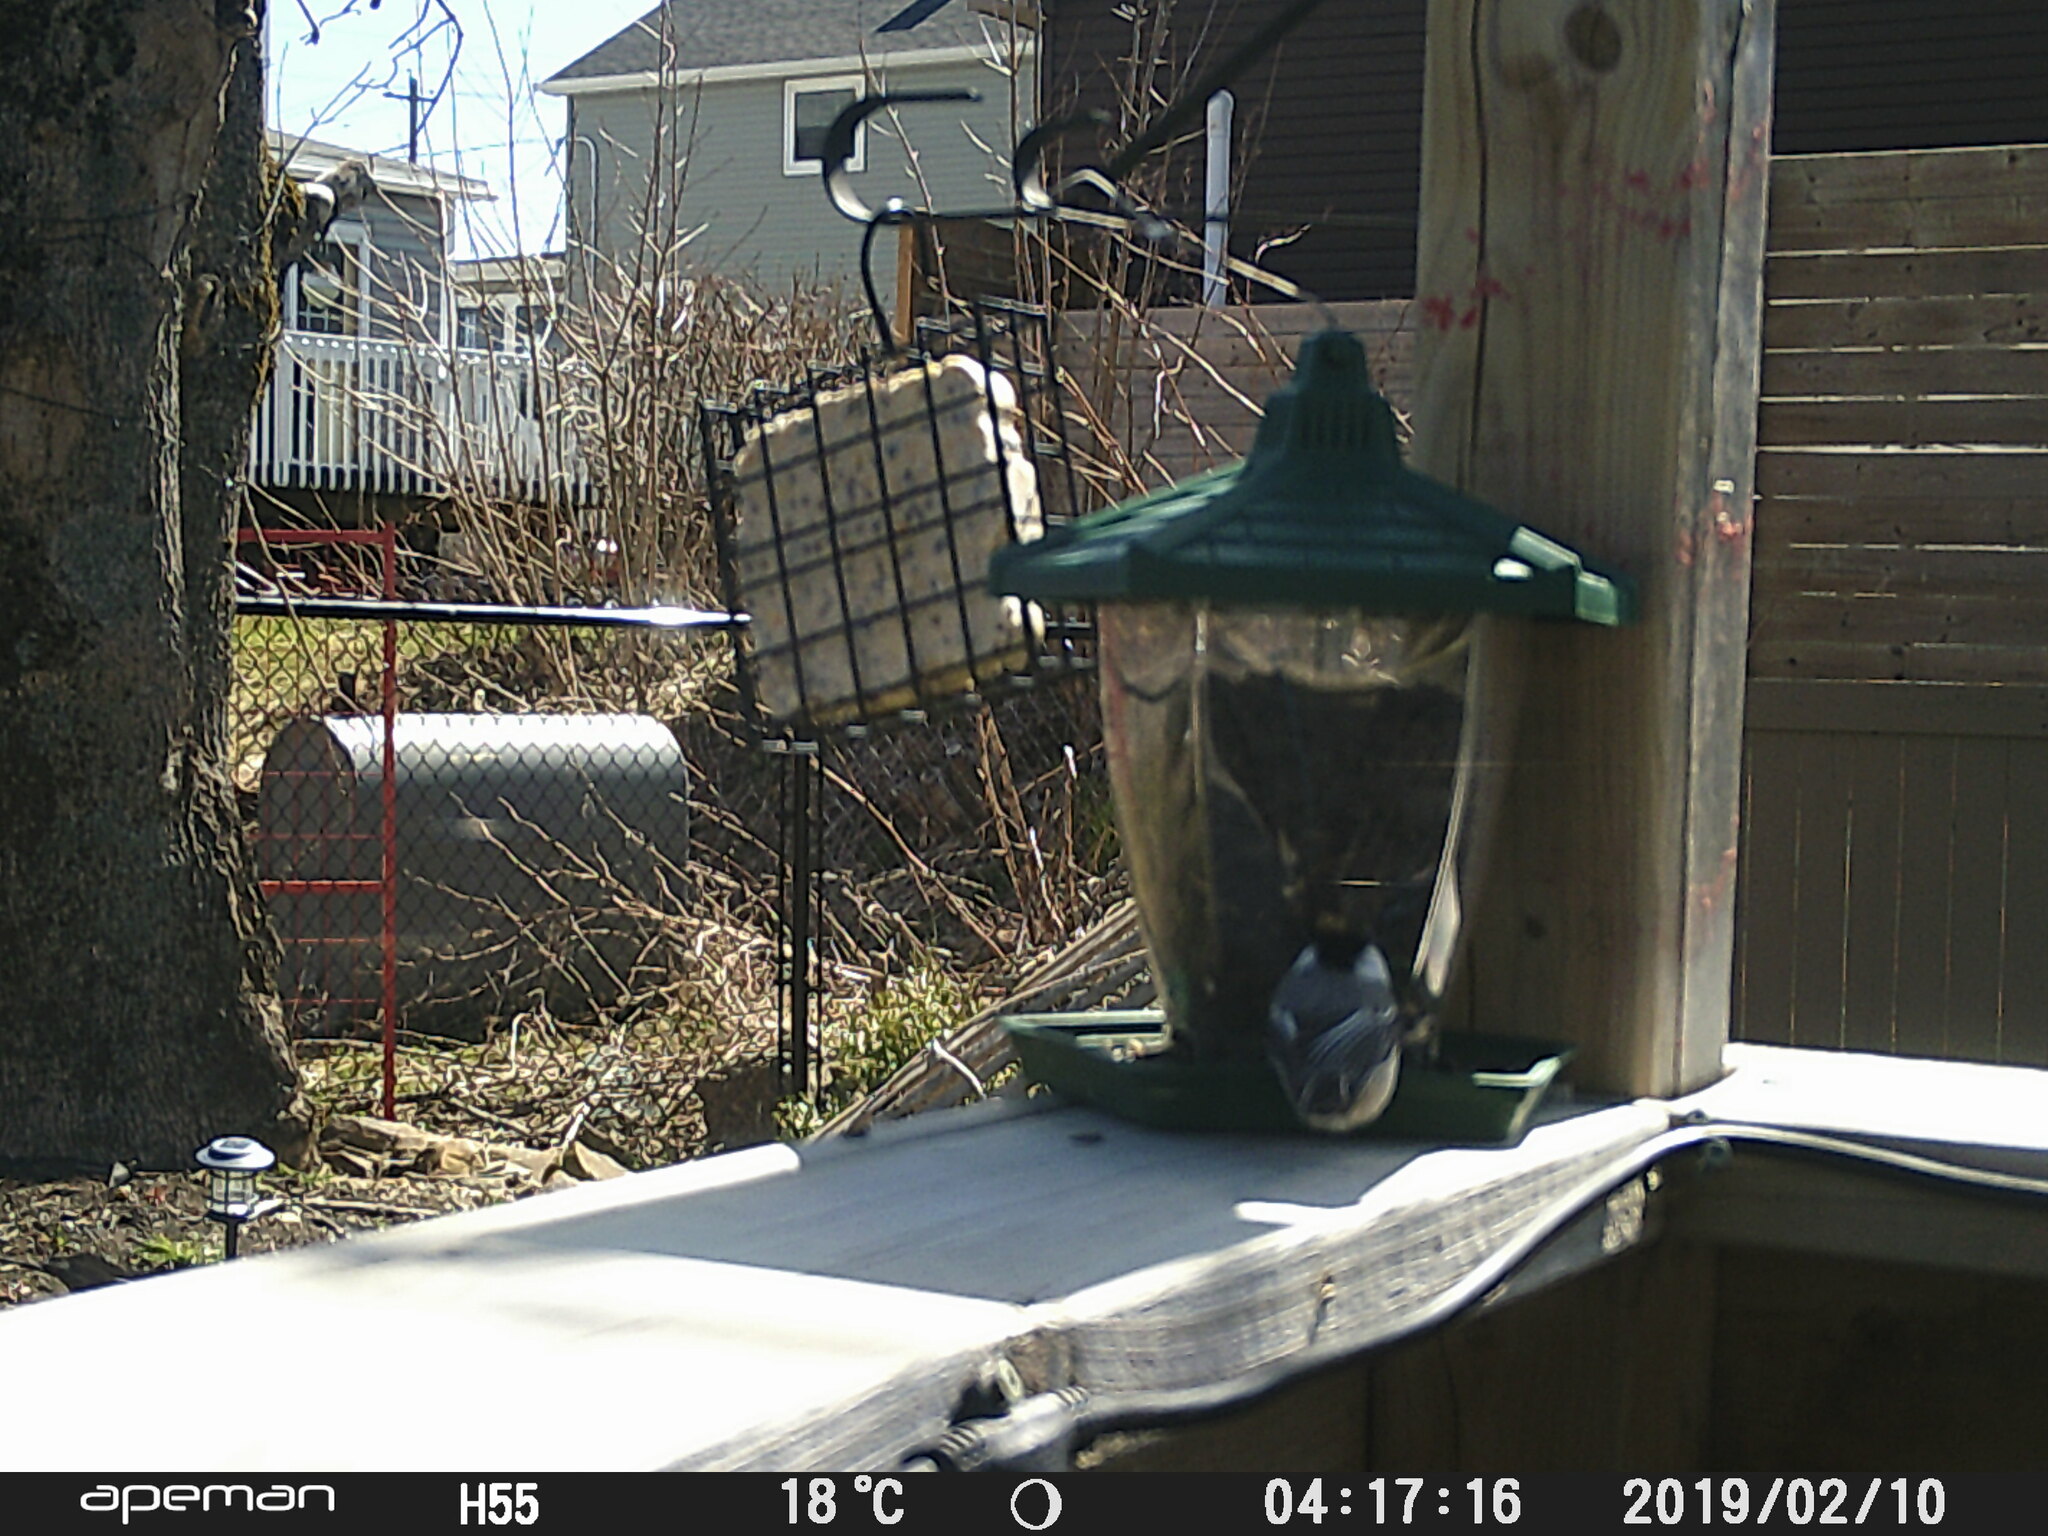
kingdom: Animalia
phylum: Chordata
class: Aves
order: Passeriformes
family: Paridae
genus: Poecile
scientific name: Poecile atricapillus
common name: Black-capped chickadee
